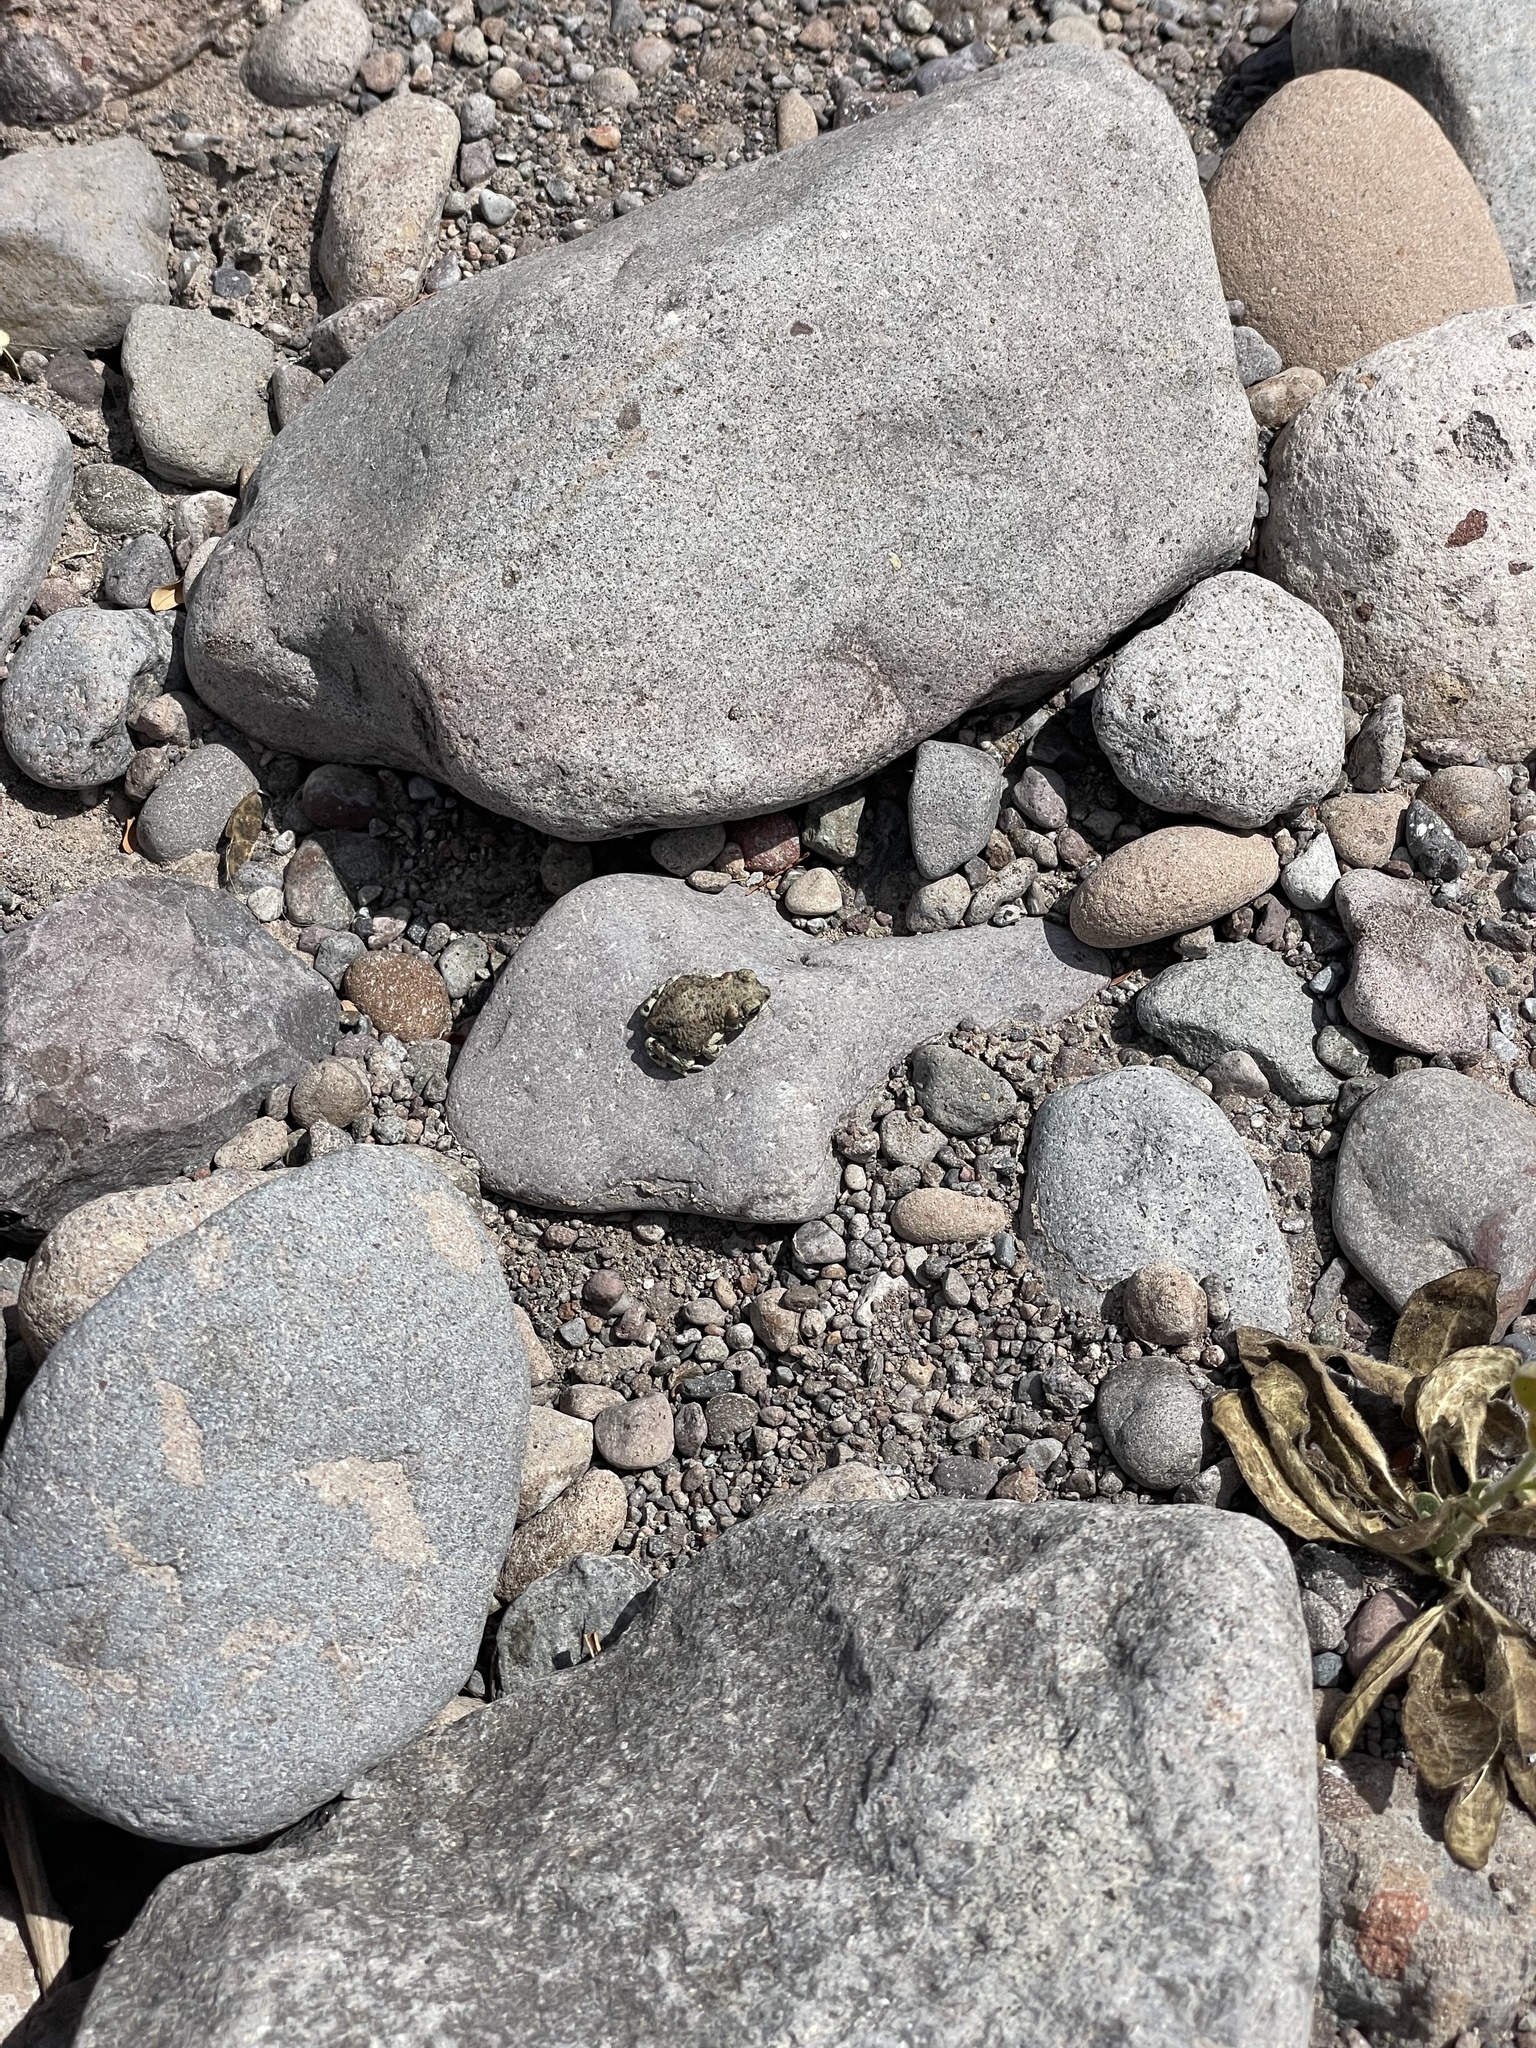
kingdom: Animalia
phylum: Chordata
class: Amphibia
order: Anura
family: Bufonidae
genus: Anaxyrus
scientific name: Anaxyrus punctatus
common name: Red-spotted toad
